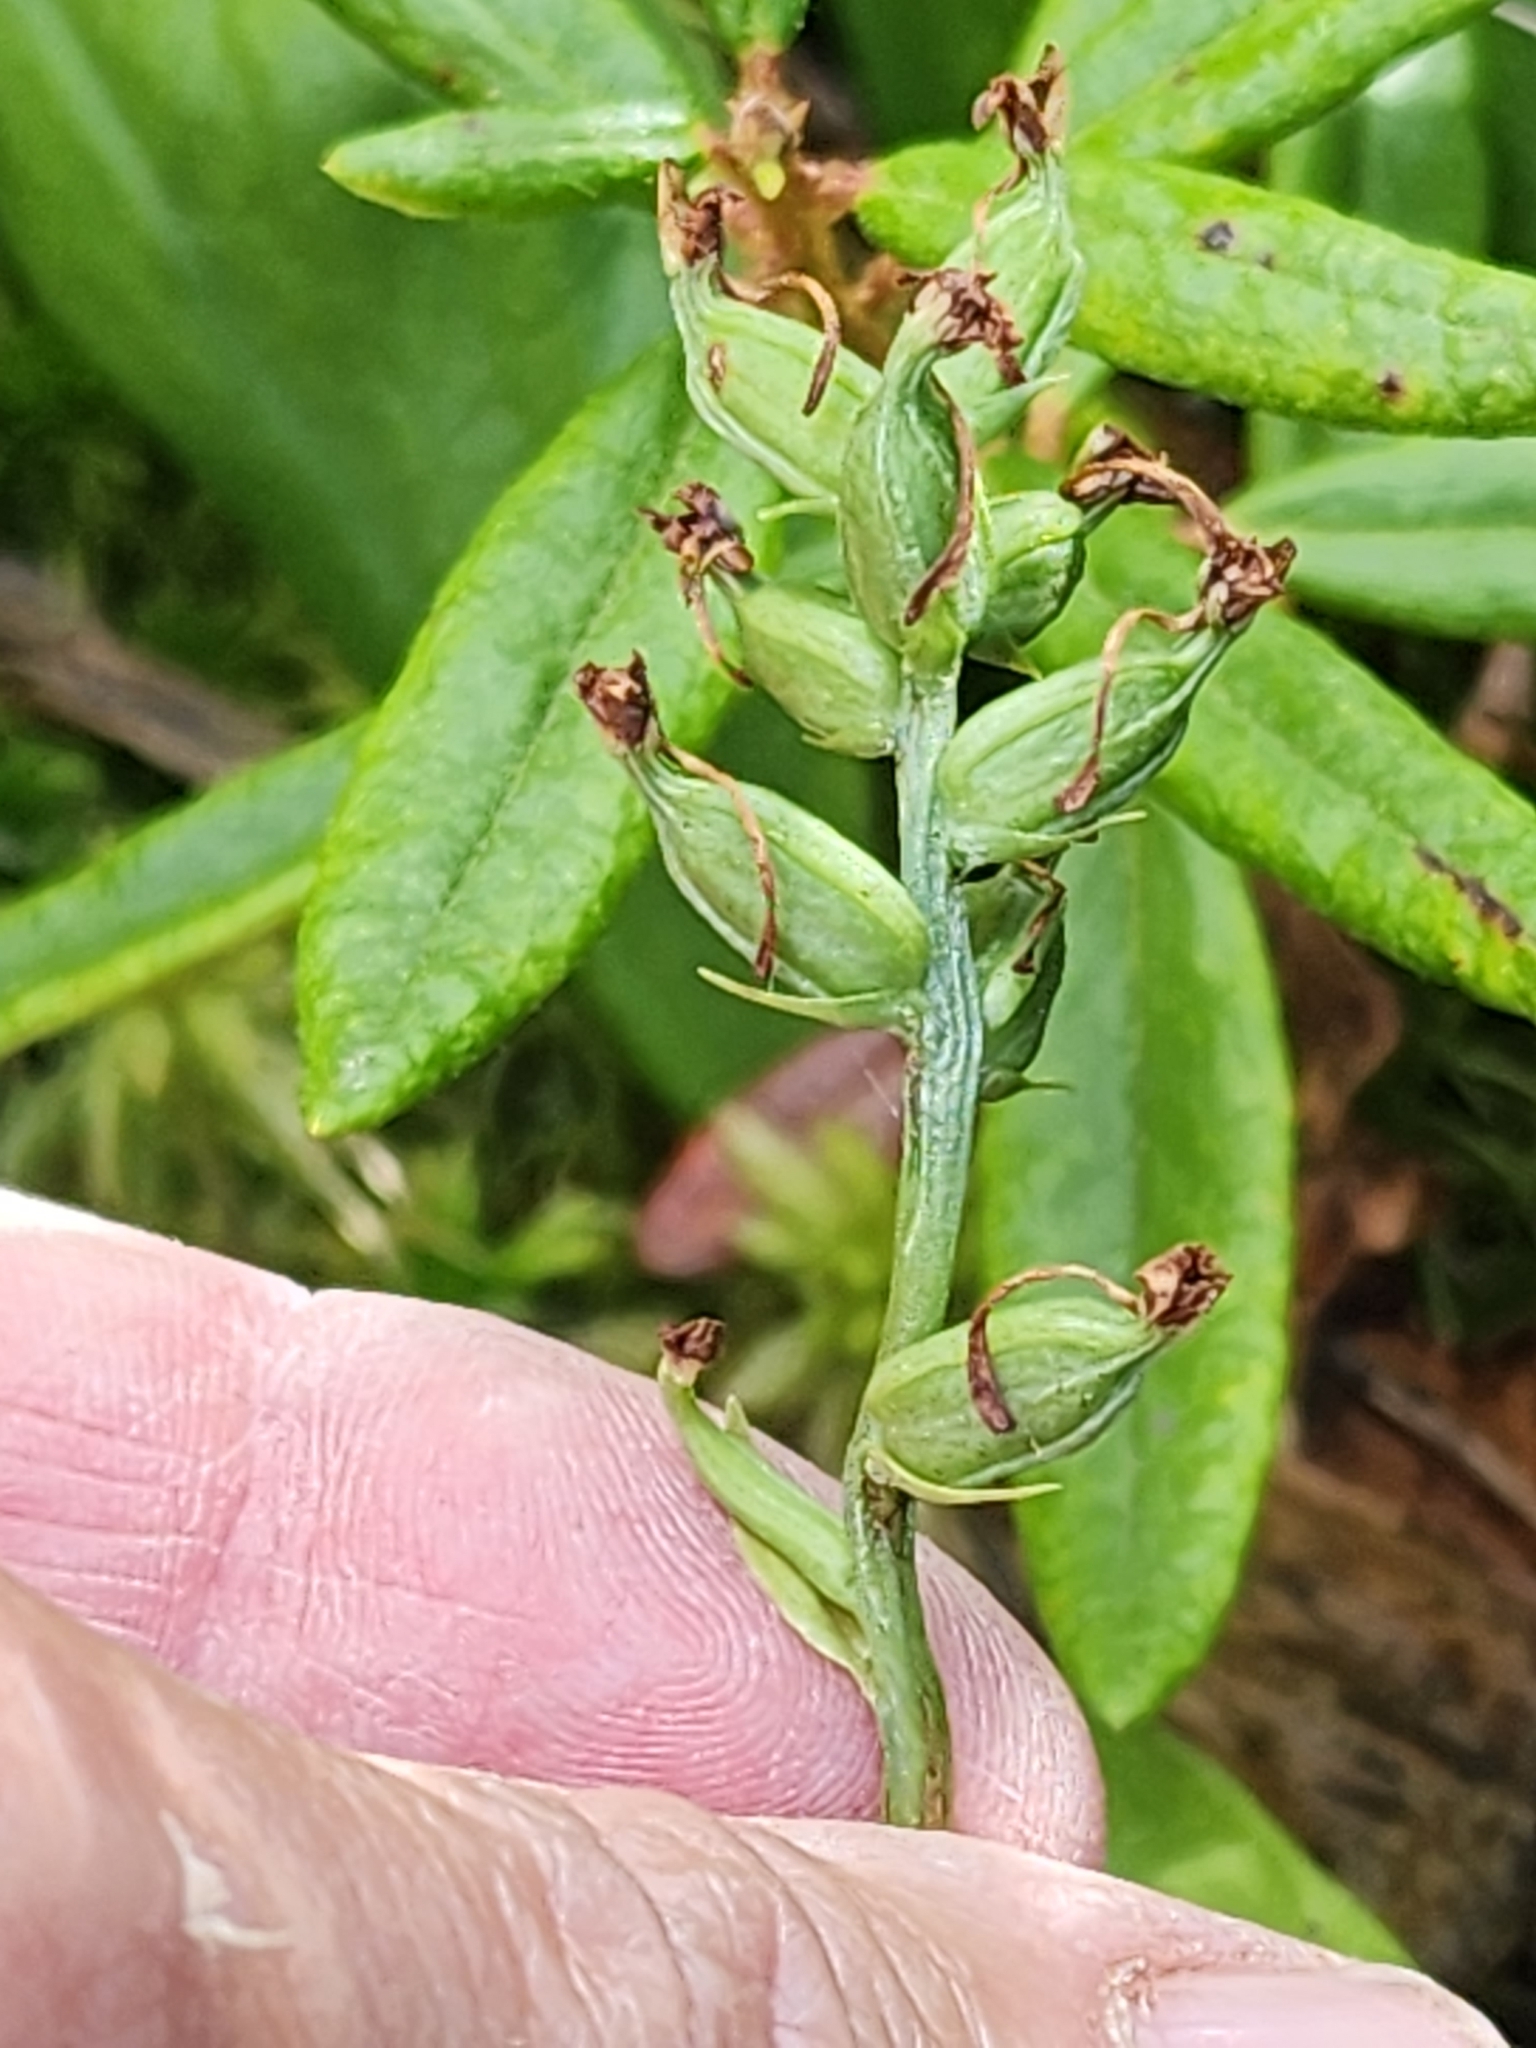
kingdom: Plantae
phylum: Tracheophyta
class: Liliopsida
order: Asparagales
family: Orchidaceae
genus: Platanthera
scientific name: Platanthera clavellata
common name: Club-spur orchid
